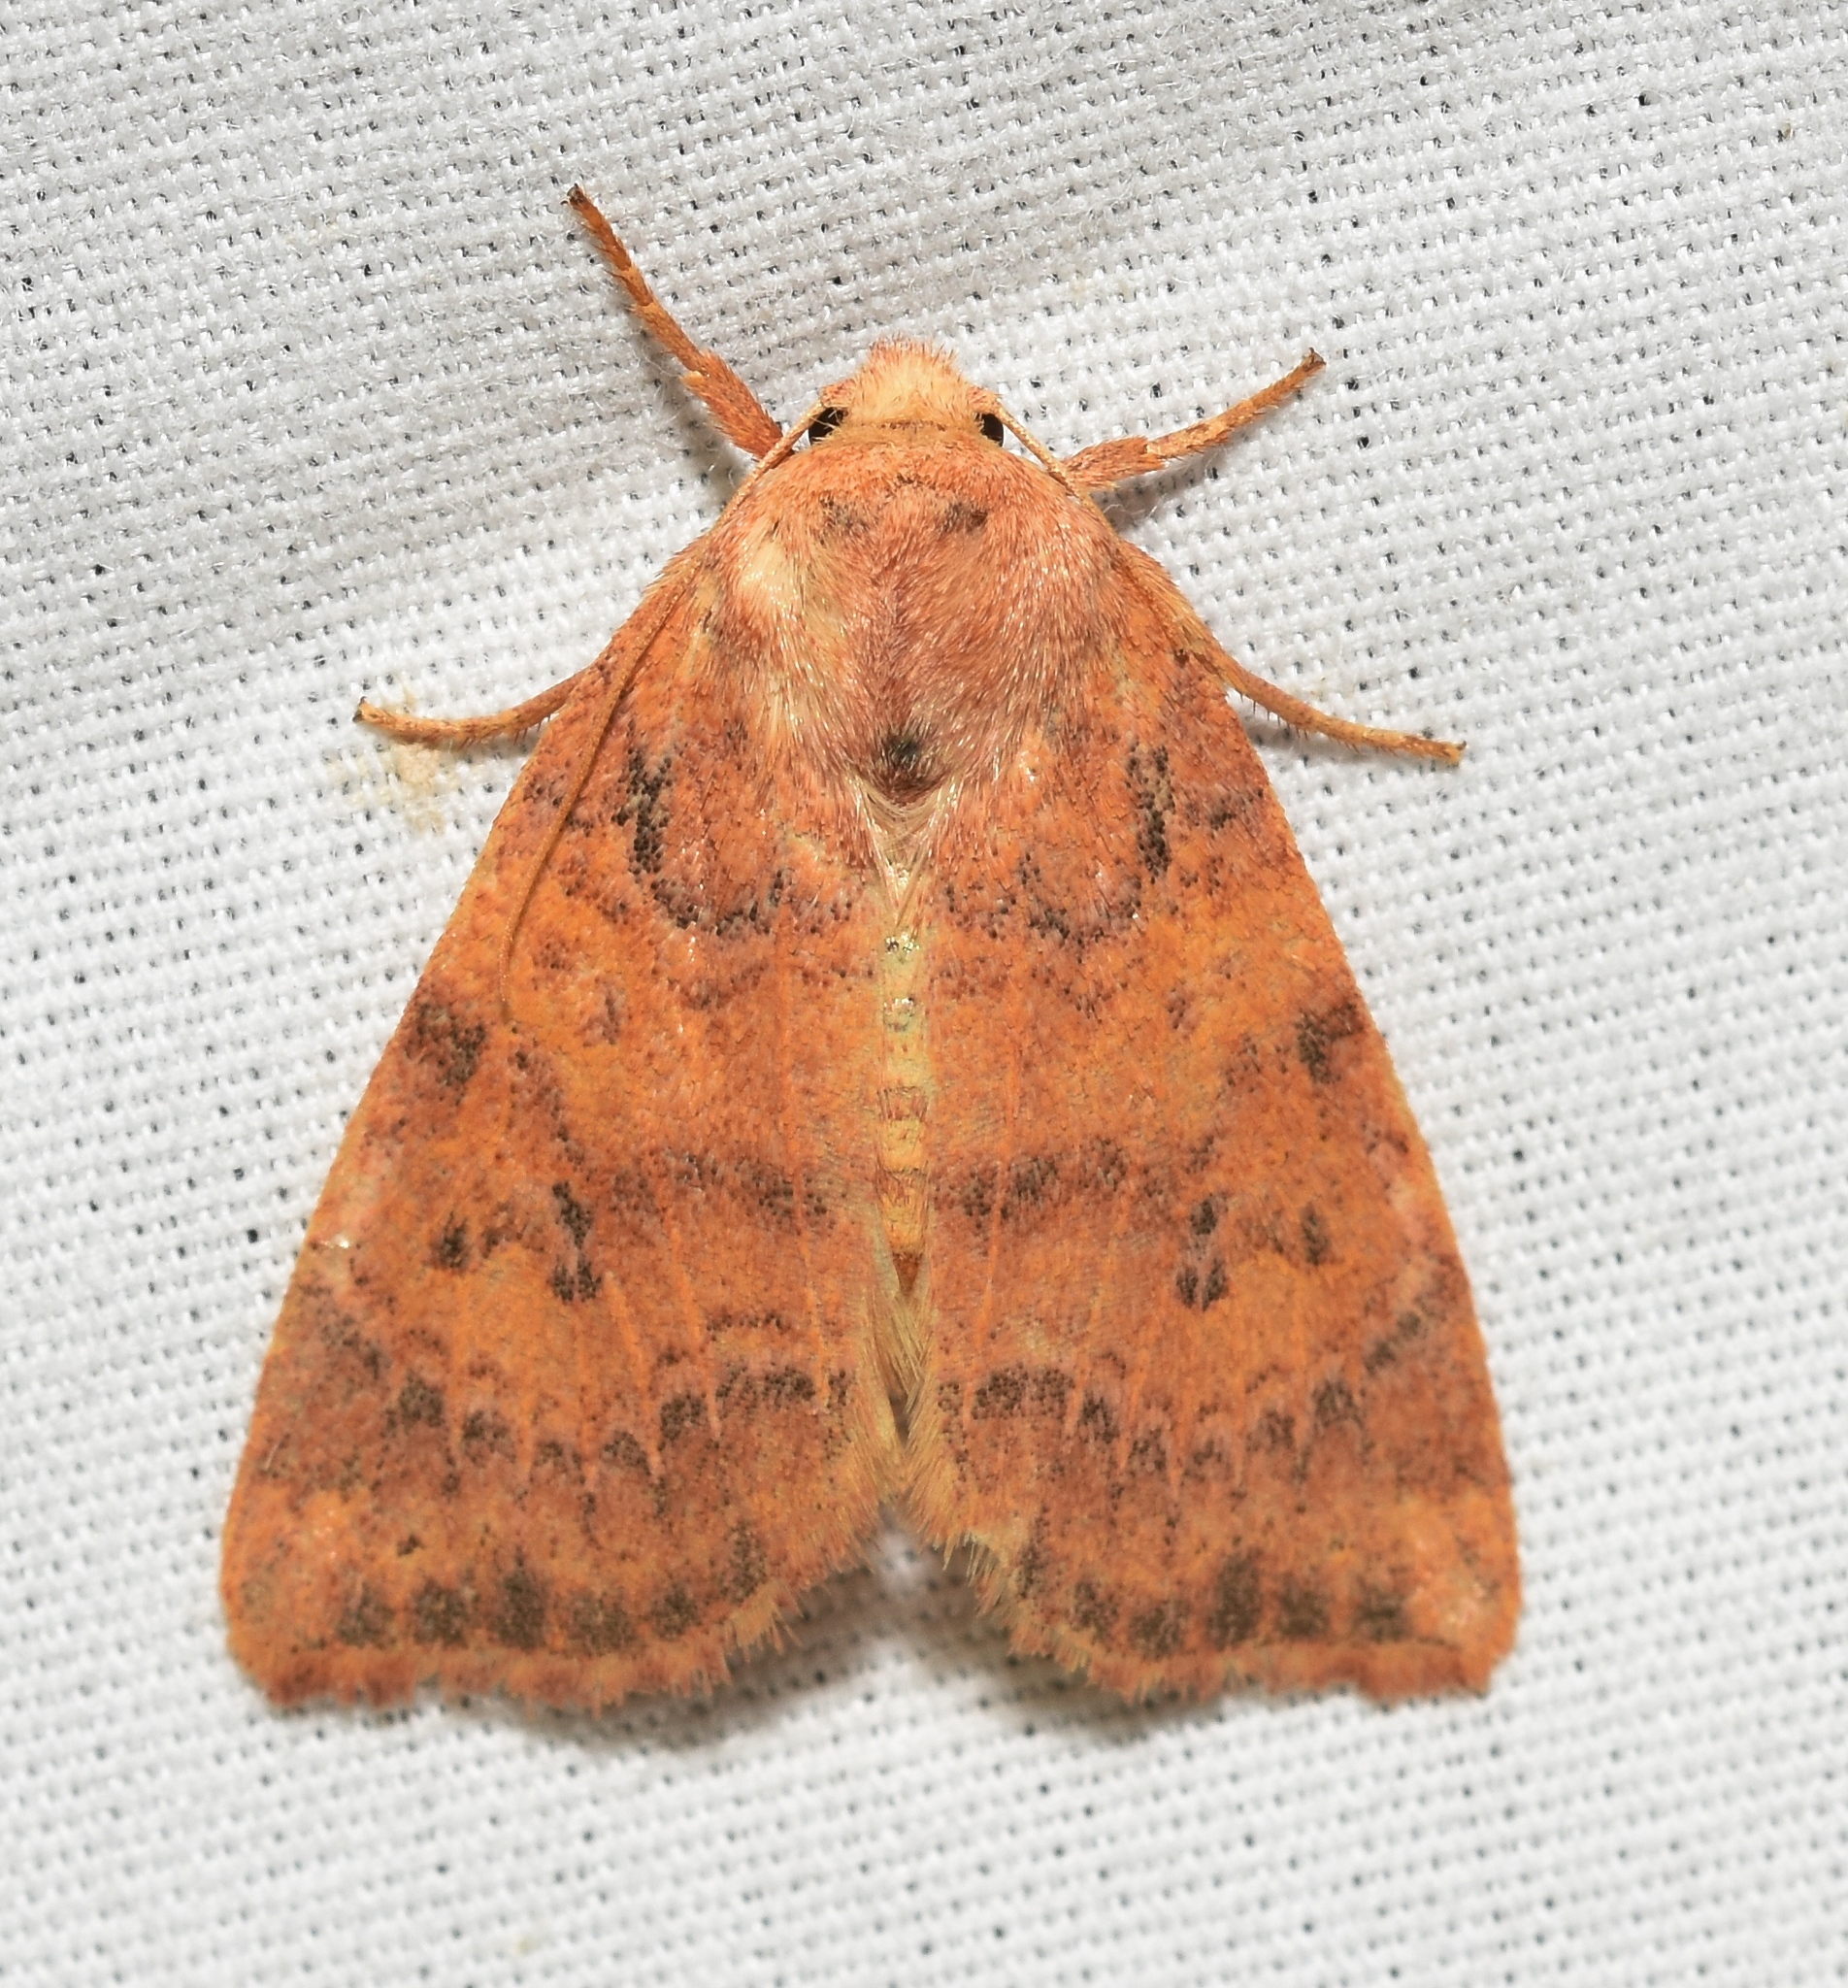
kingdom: Animalia
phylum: Arthropoda
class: Insecta
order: Lepidoptera
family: Noctuidae
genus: Anathix
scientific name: Anathix ralla
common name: Dotted sallow
